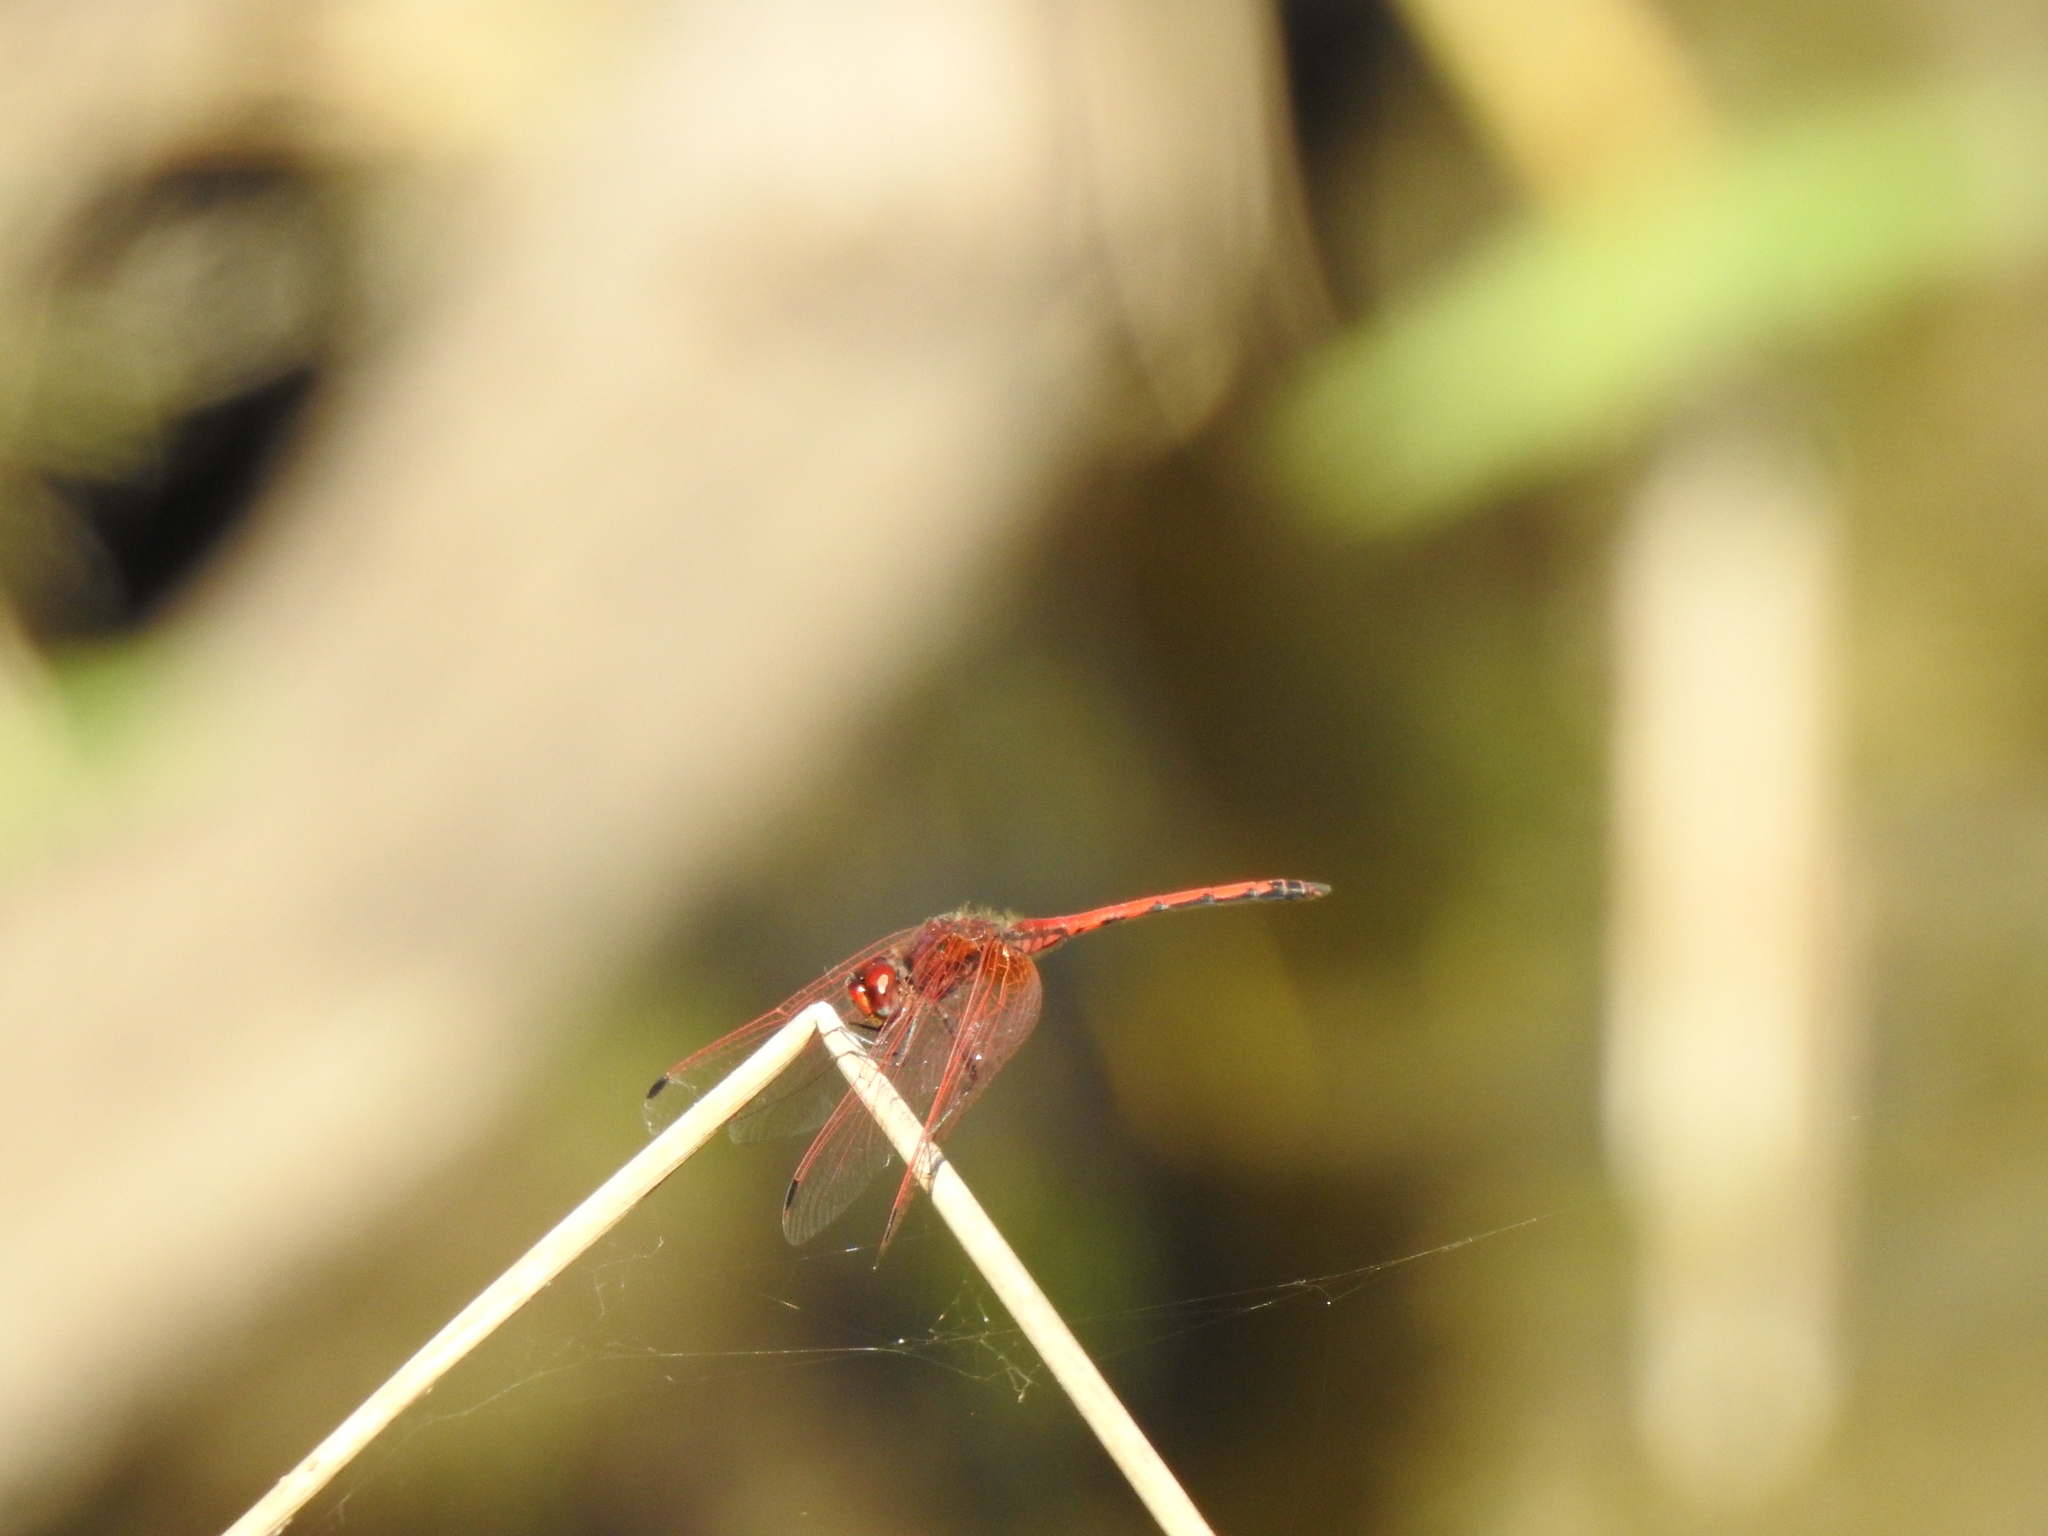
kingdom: Animalia
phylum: Arthropoda
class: Insecta
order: Odonata
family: Libellulidae
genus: Trithemis
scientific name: Trithemis arteriosa
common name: Red-veined dropwing
